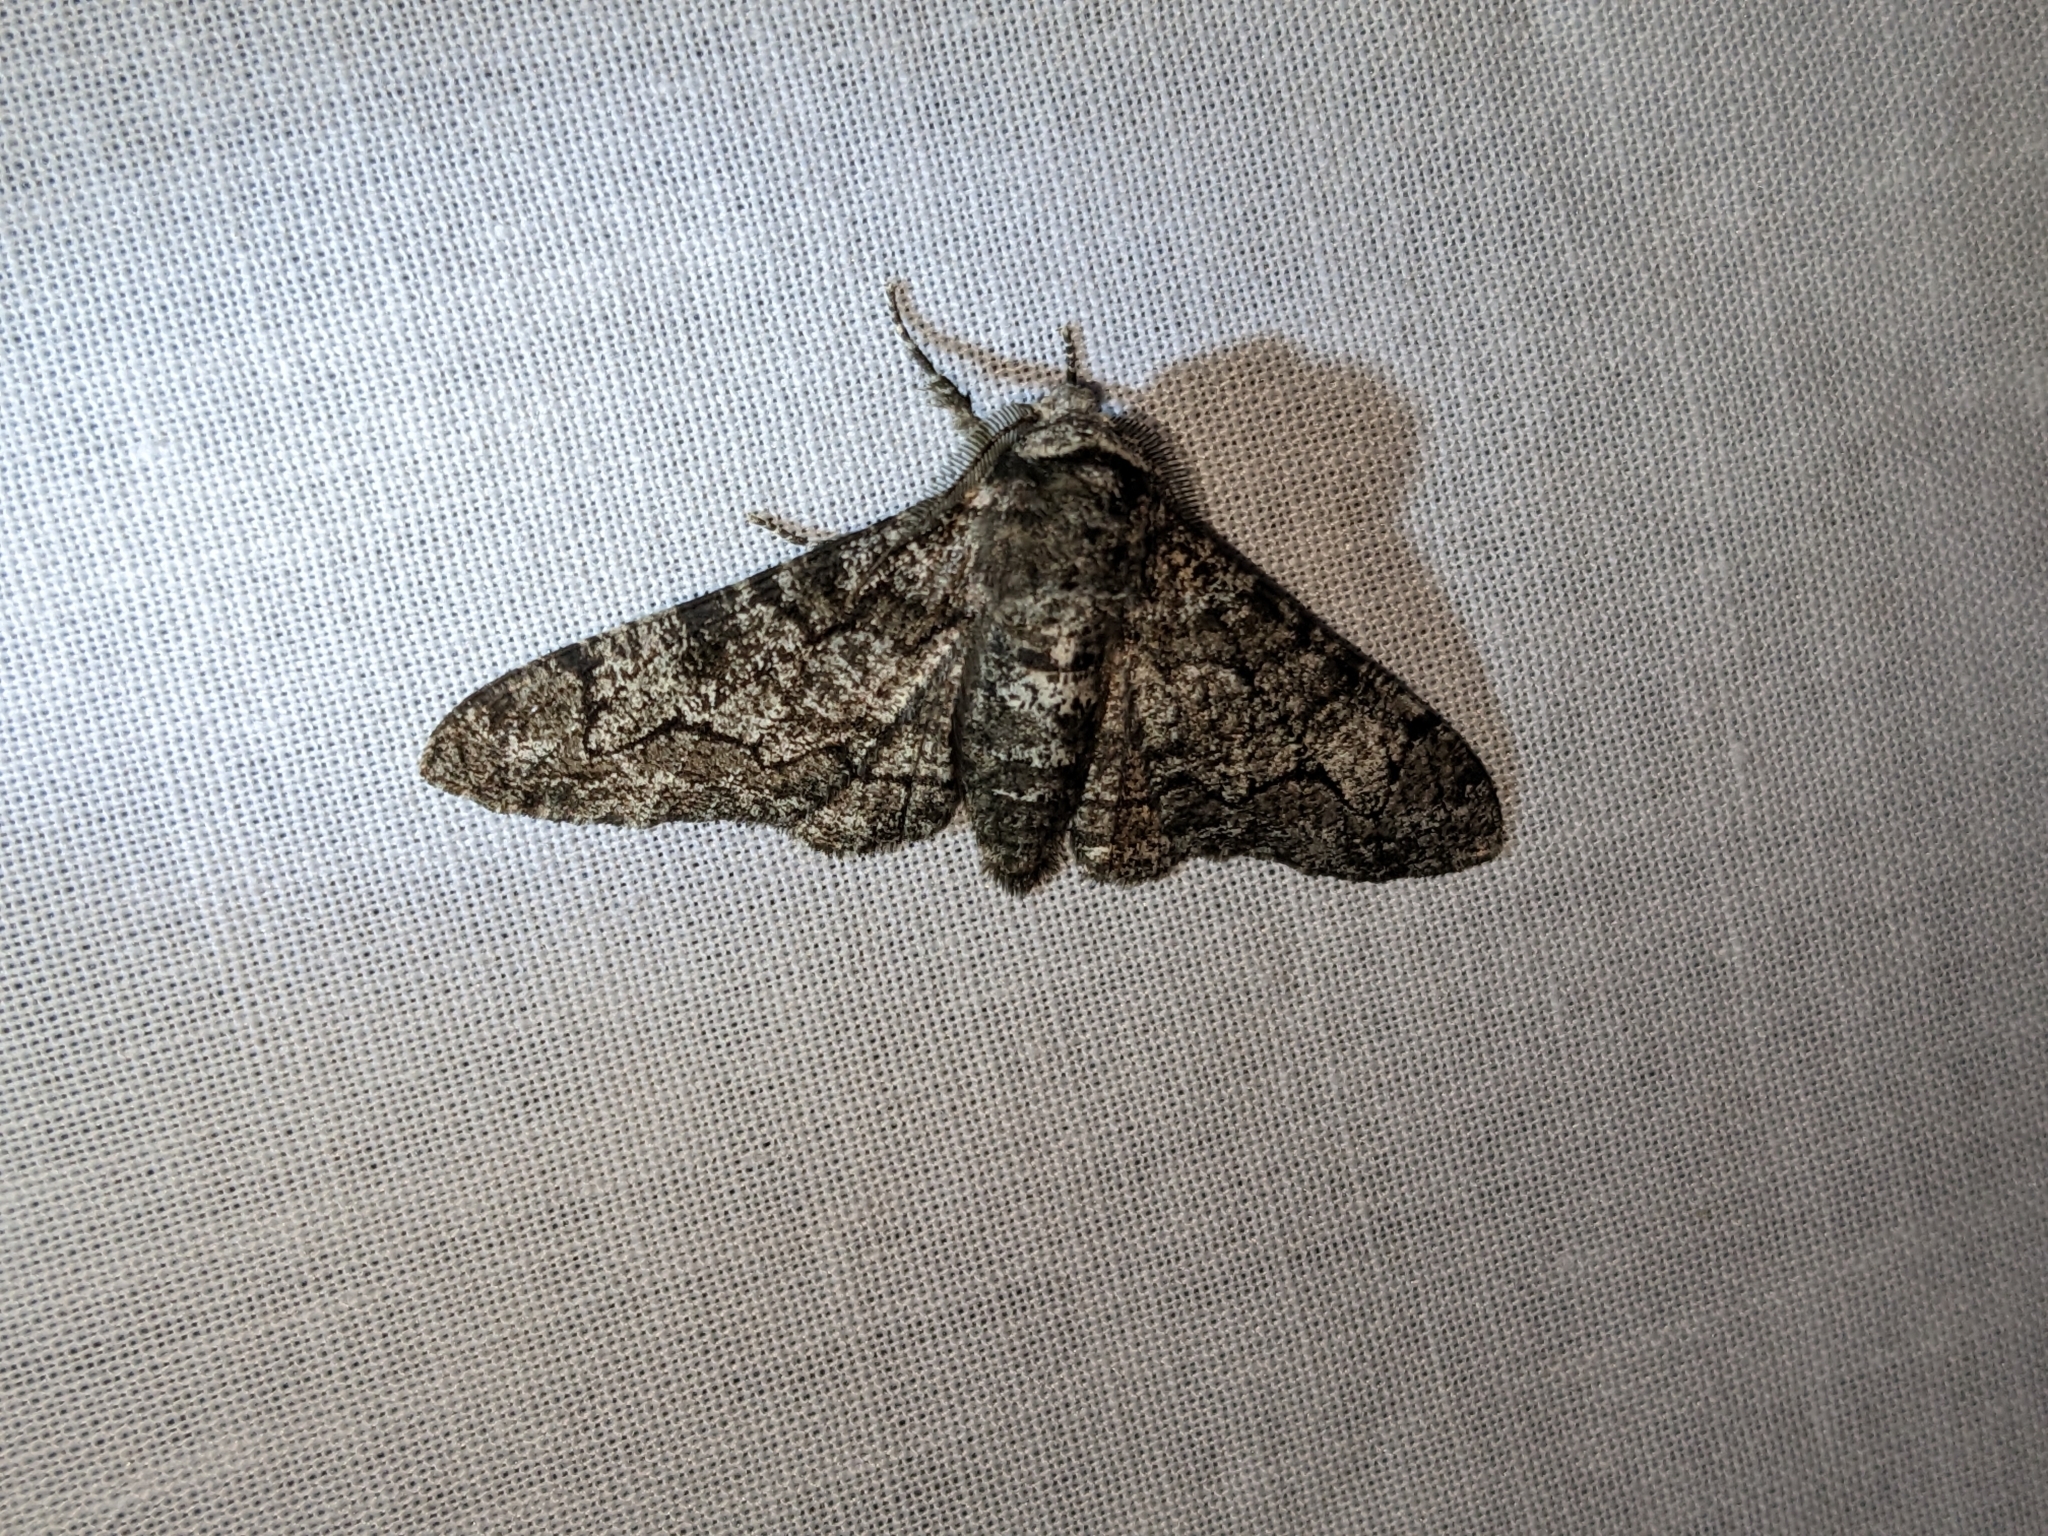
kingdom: Animalia
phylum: Arthropoda
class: Insecta
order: Lepidoptera
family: Geometridae
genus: Biston
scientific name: Biston betularia
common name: Peppered moth
